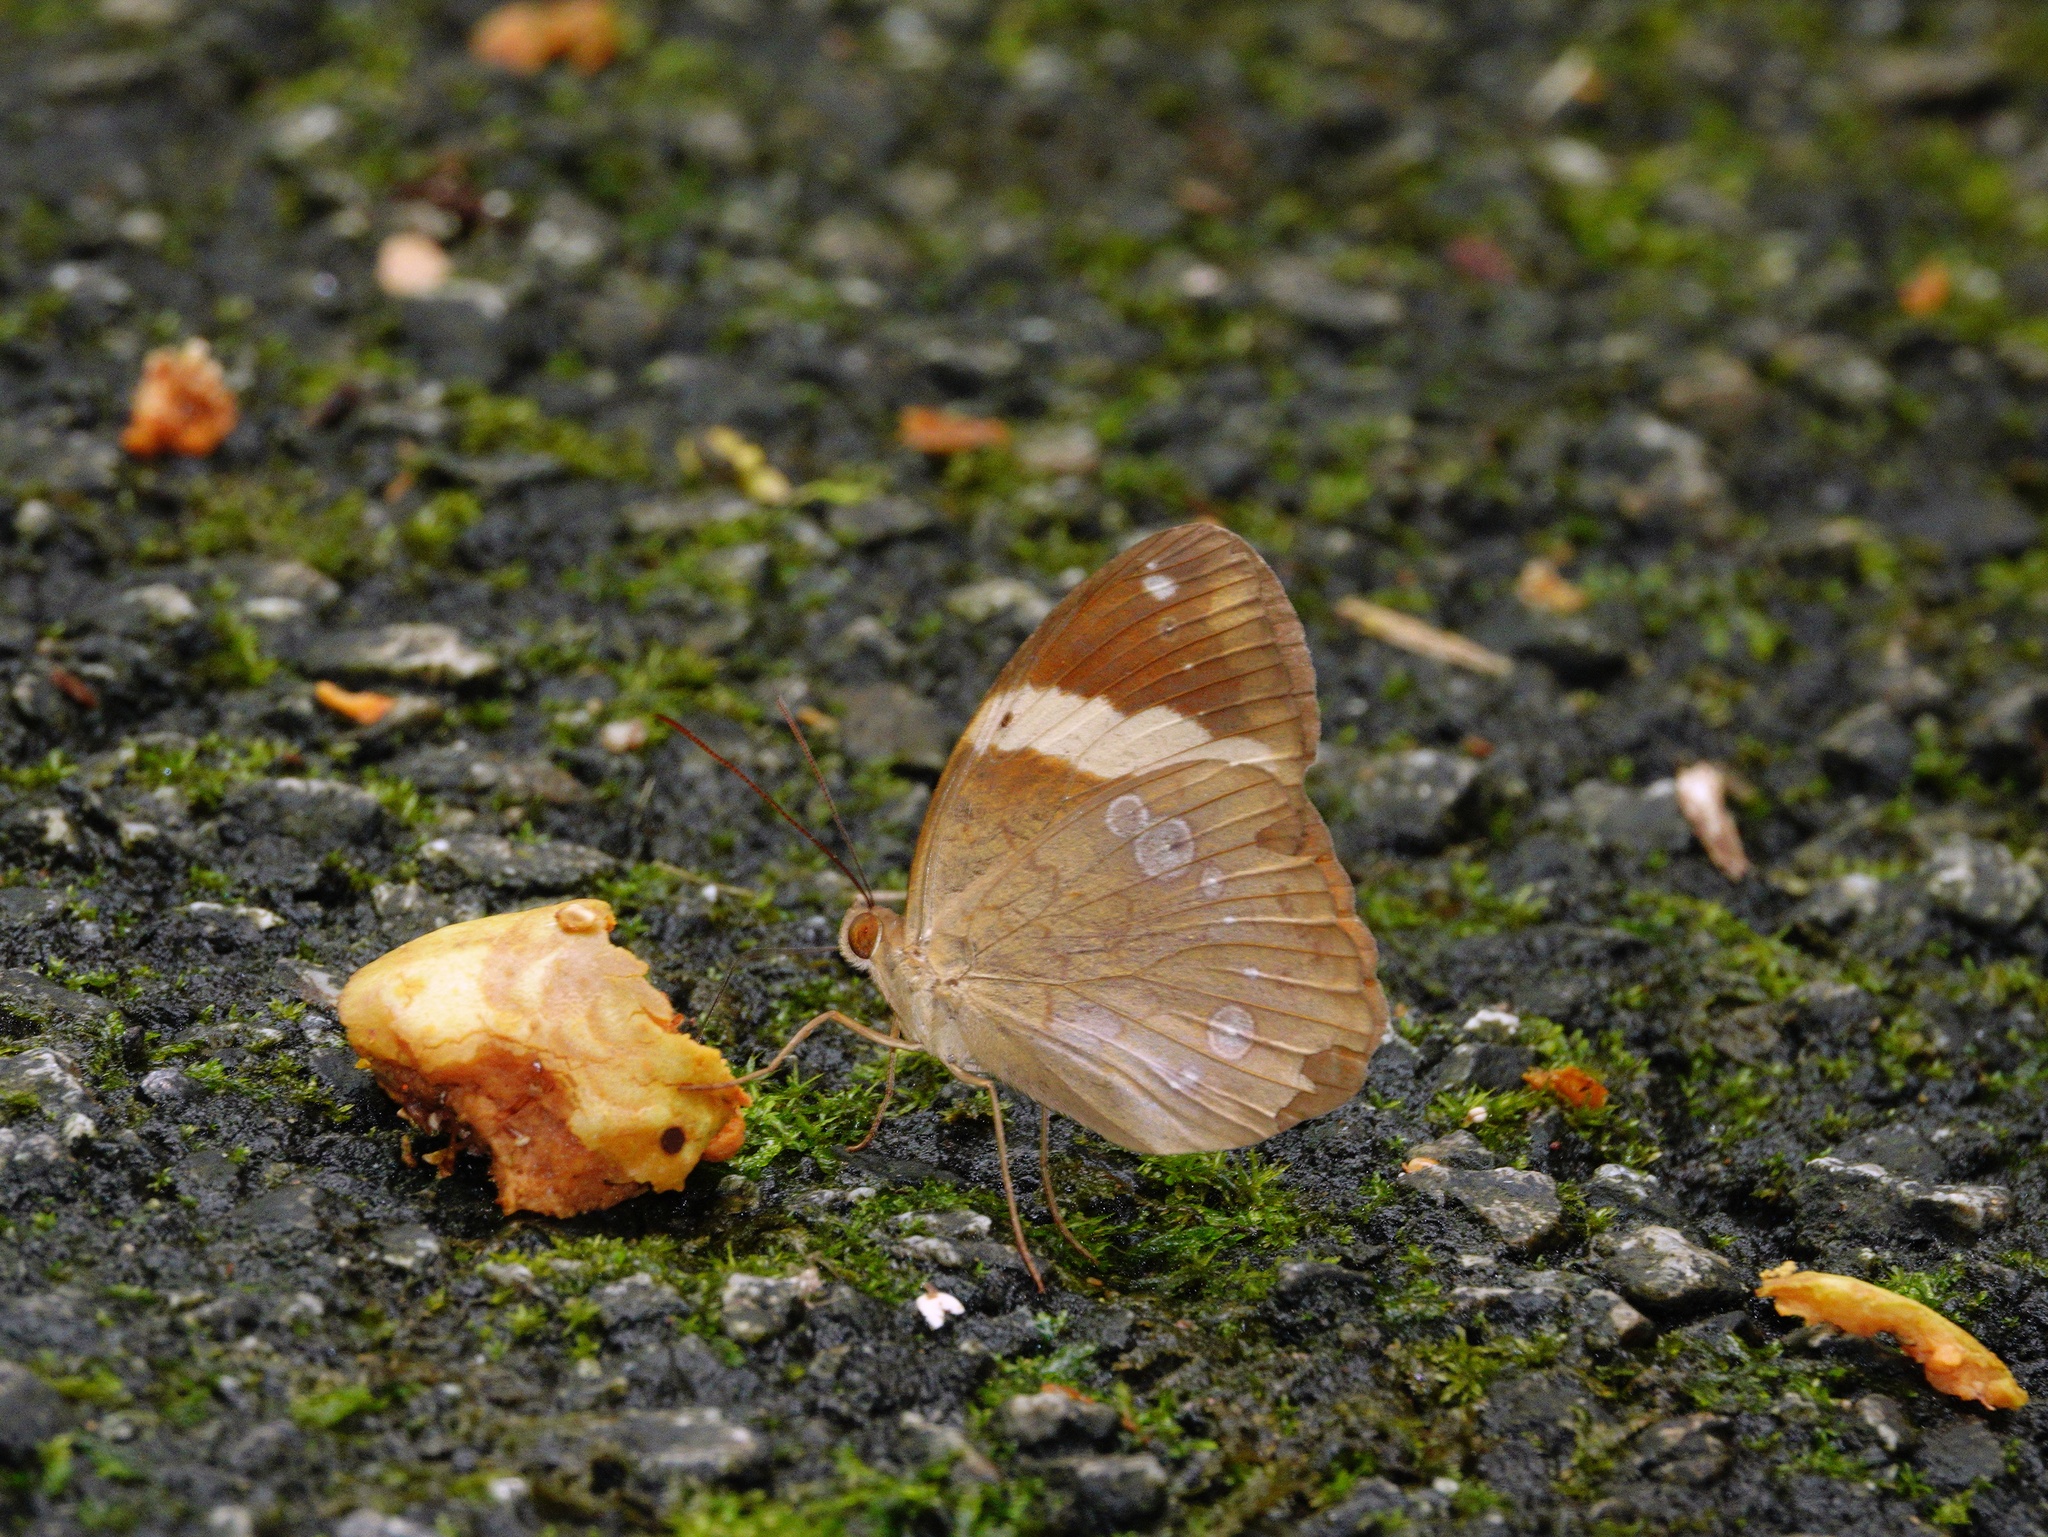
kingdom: Animalia
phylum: Arthropoda
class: Insecta
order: Lepidoptera
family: Nymphalidae
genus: Xanthotaenia
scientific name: Xanthotaenia busiris
